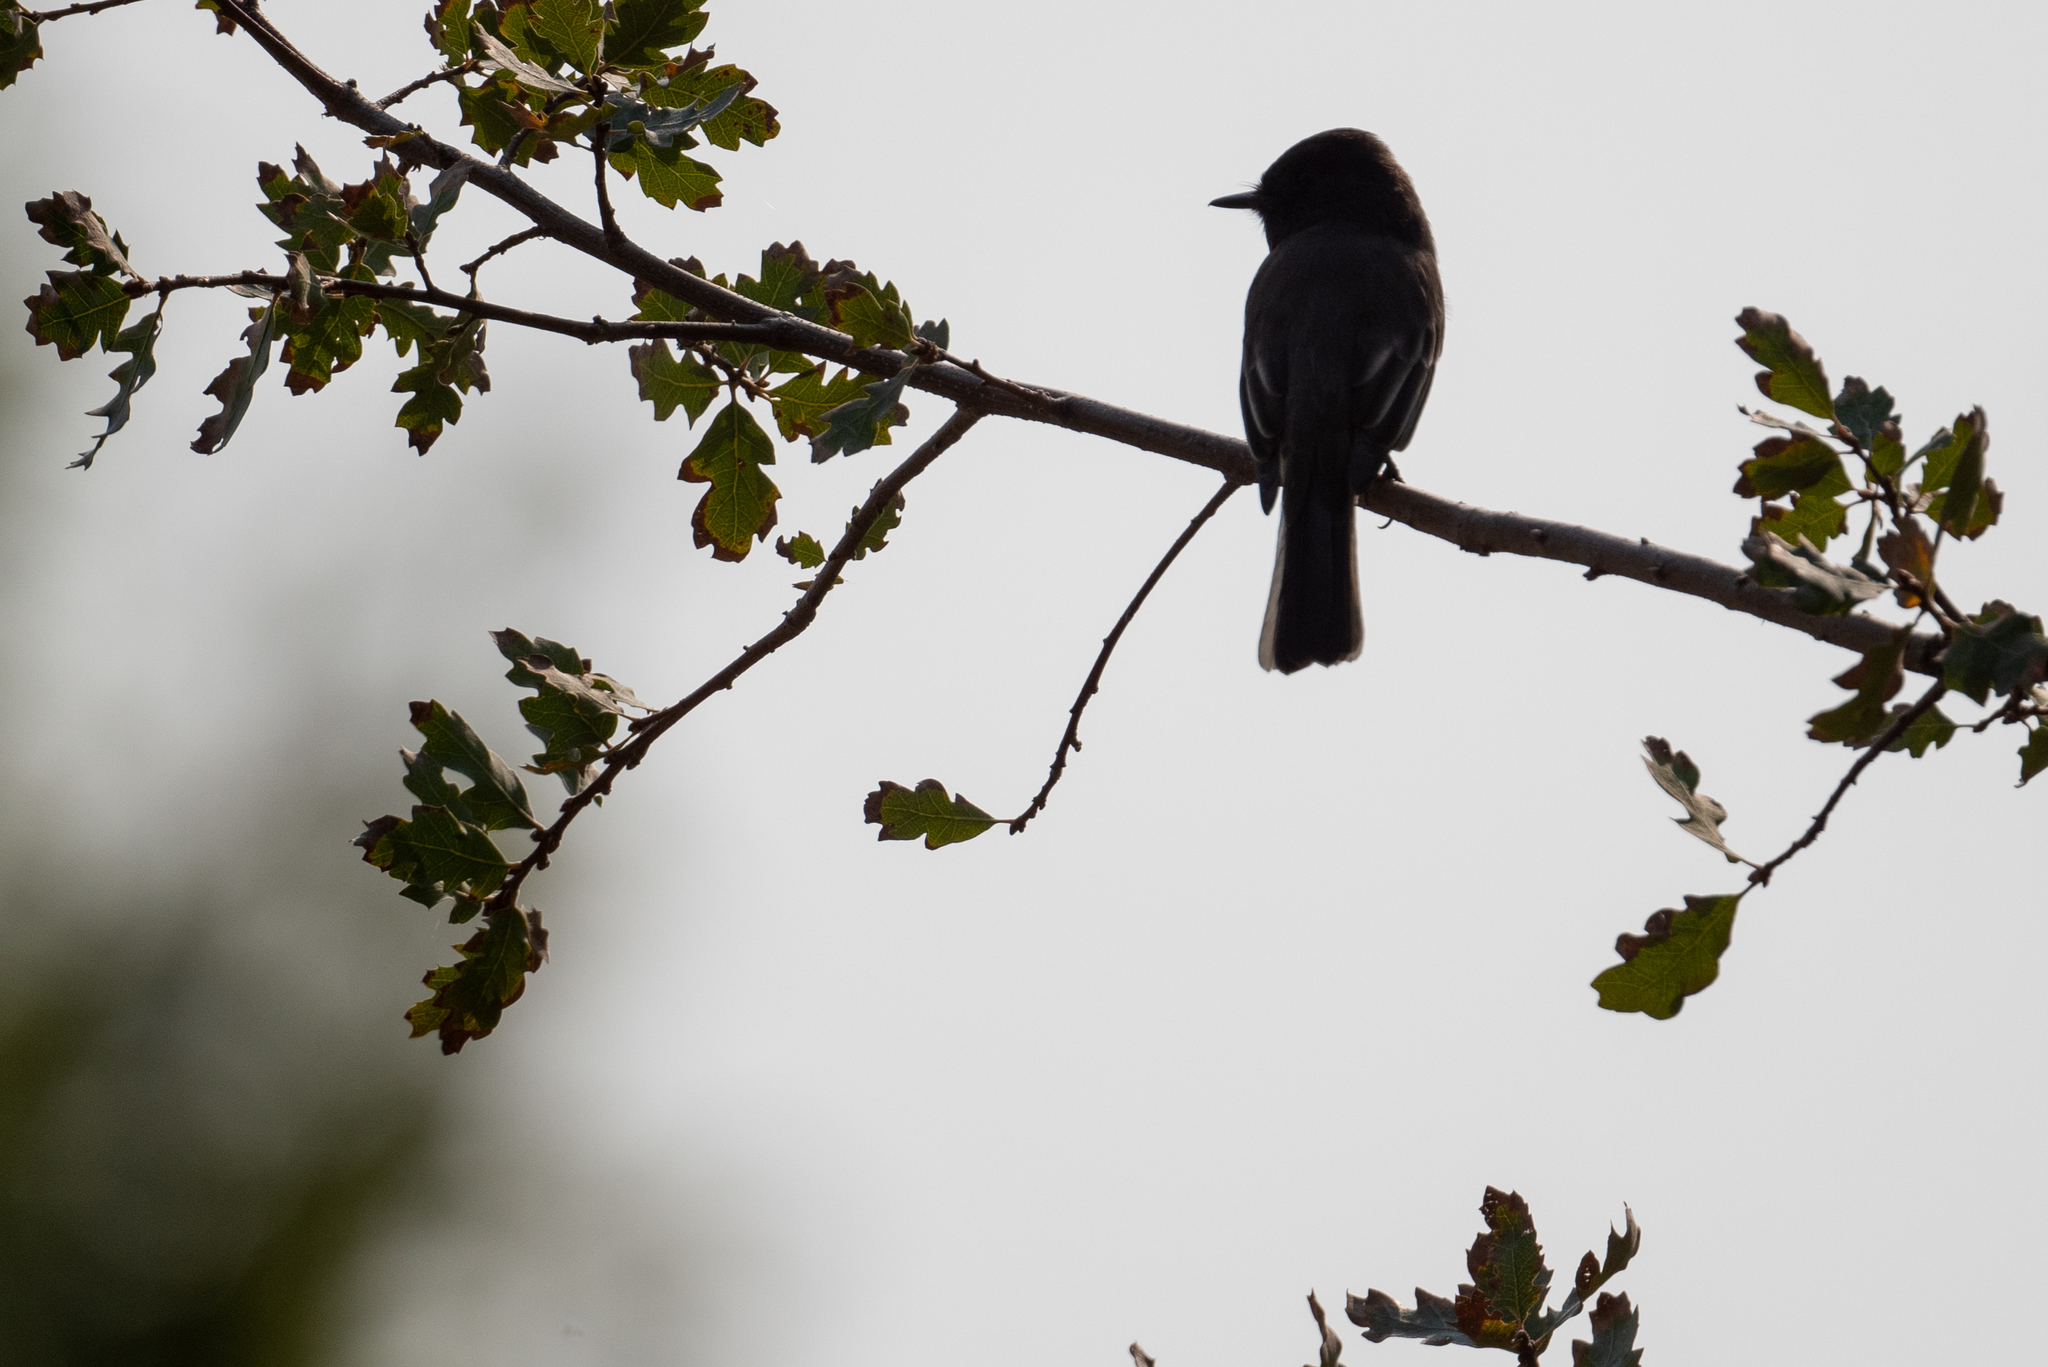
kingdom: Animalia
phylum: Chordata
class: Aves
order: Passeriformes
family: Tyrannidae
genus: Sayornis
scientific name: Sayornis nigricans
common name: Black phoebe
